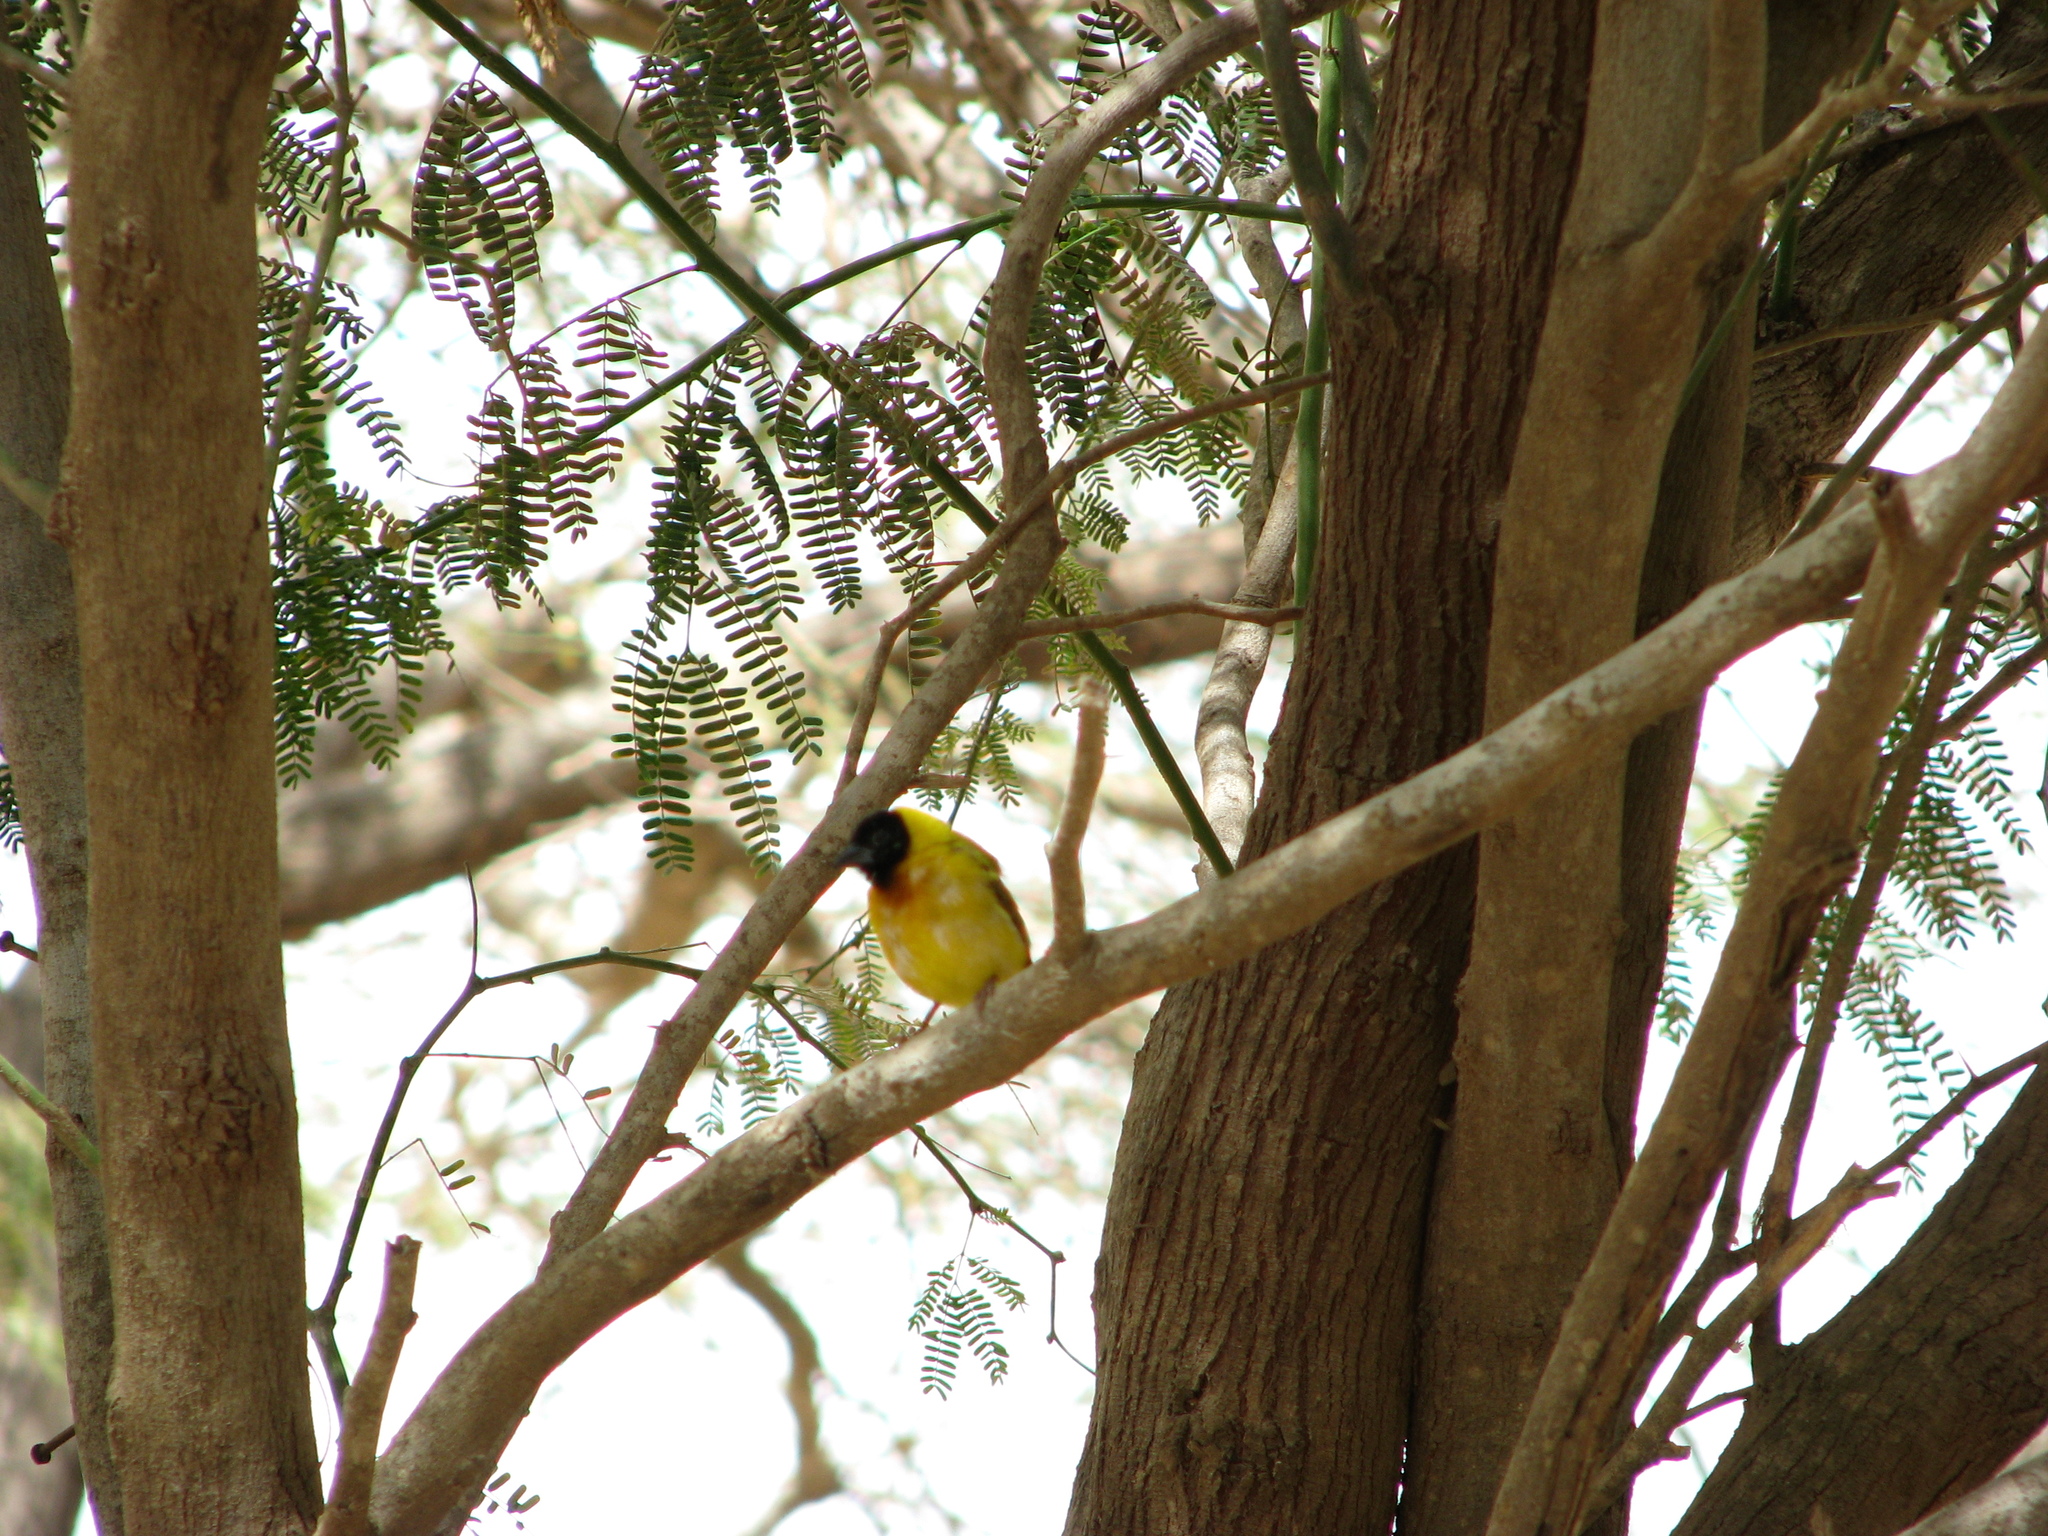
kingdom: Animalia
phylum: Chordata
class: Aves
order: Passeriformes
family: Ploceidae
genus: Ploceus
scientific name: Ploceus melanocephalus
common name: Black-headed weaver
